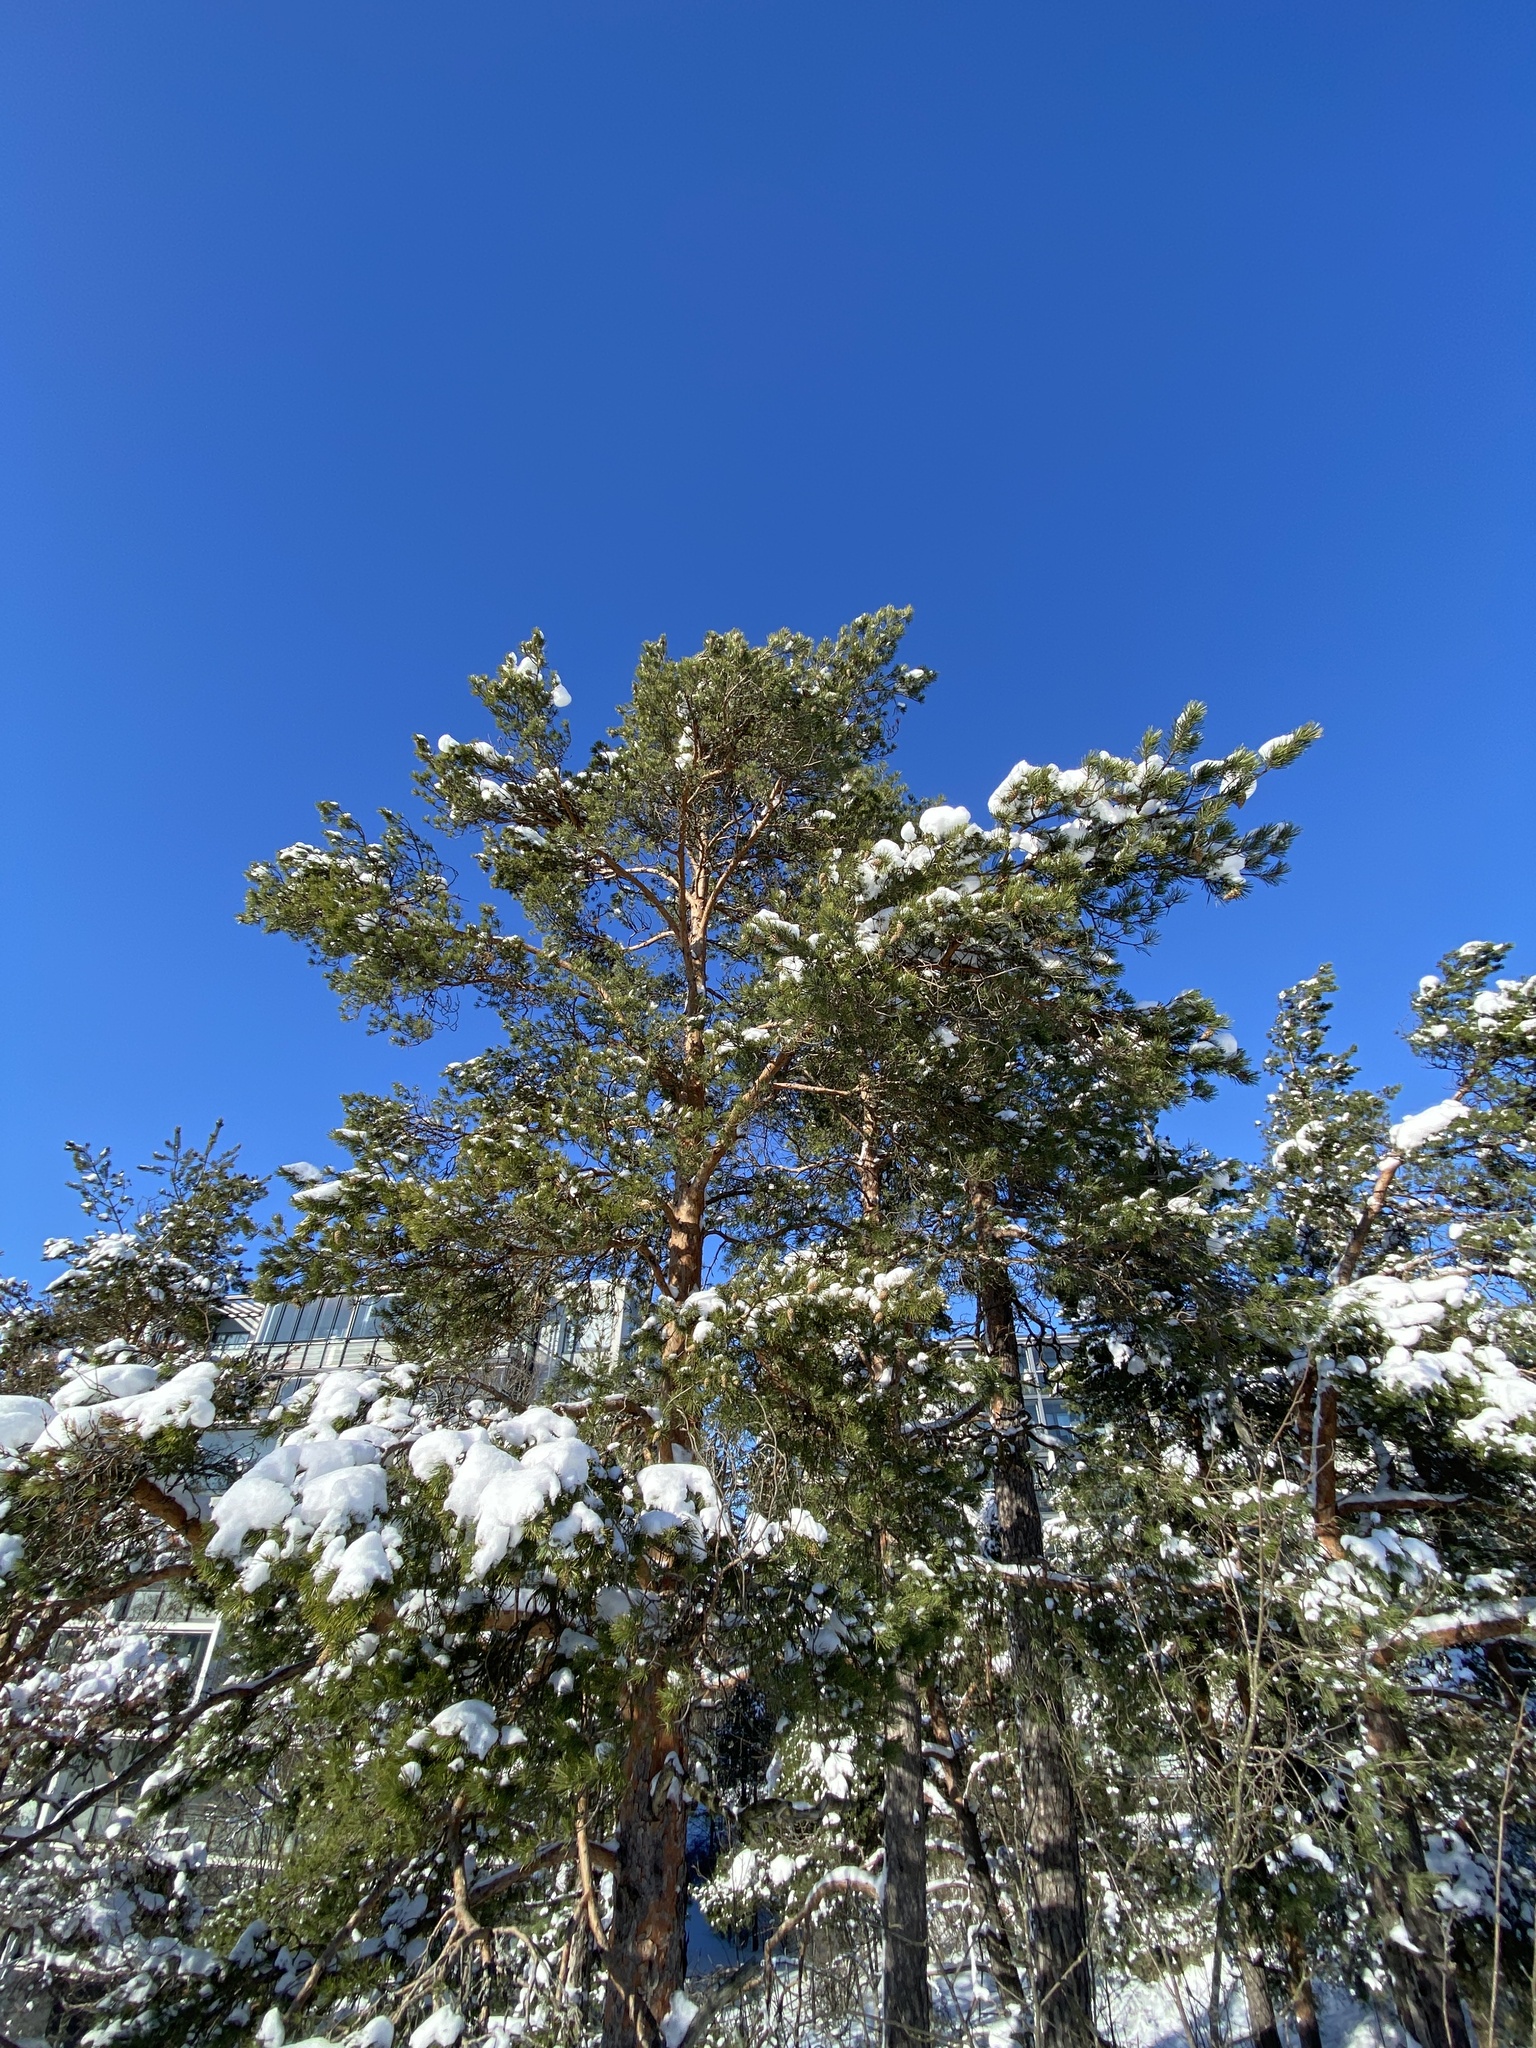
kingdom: Plantae
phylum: Tracheophyta
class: Pinopsida
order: Pinales
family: Pinaceae
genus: Pinus
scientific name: Pinus sylvestris
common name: Scots pine
